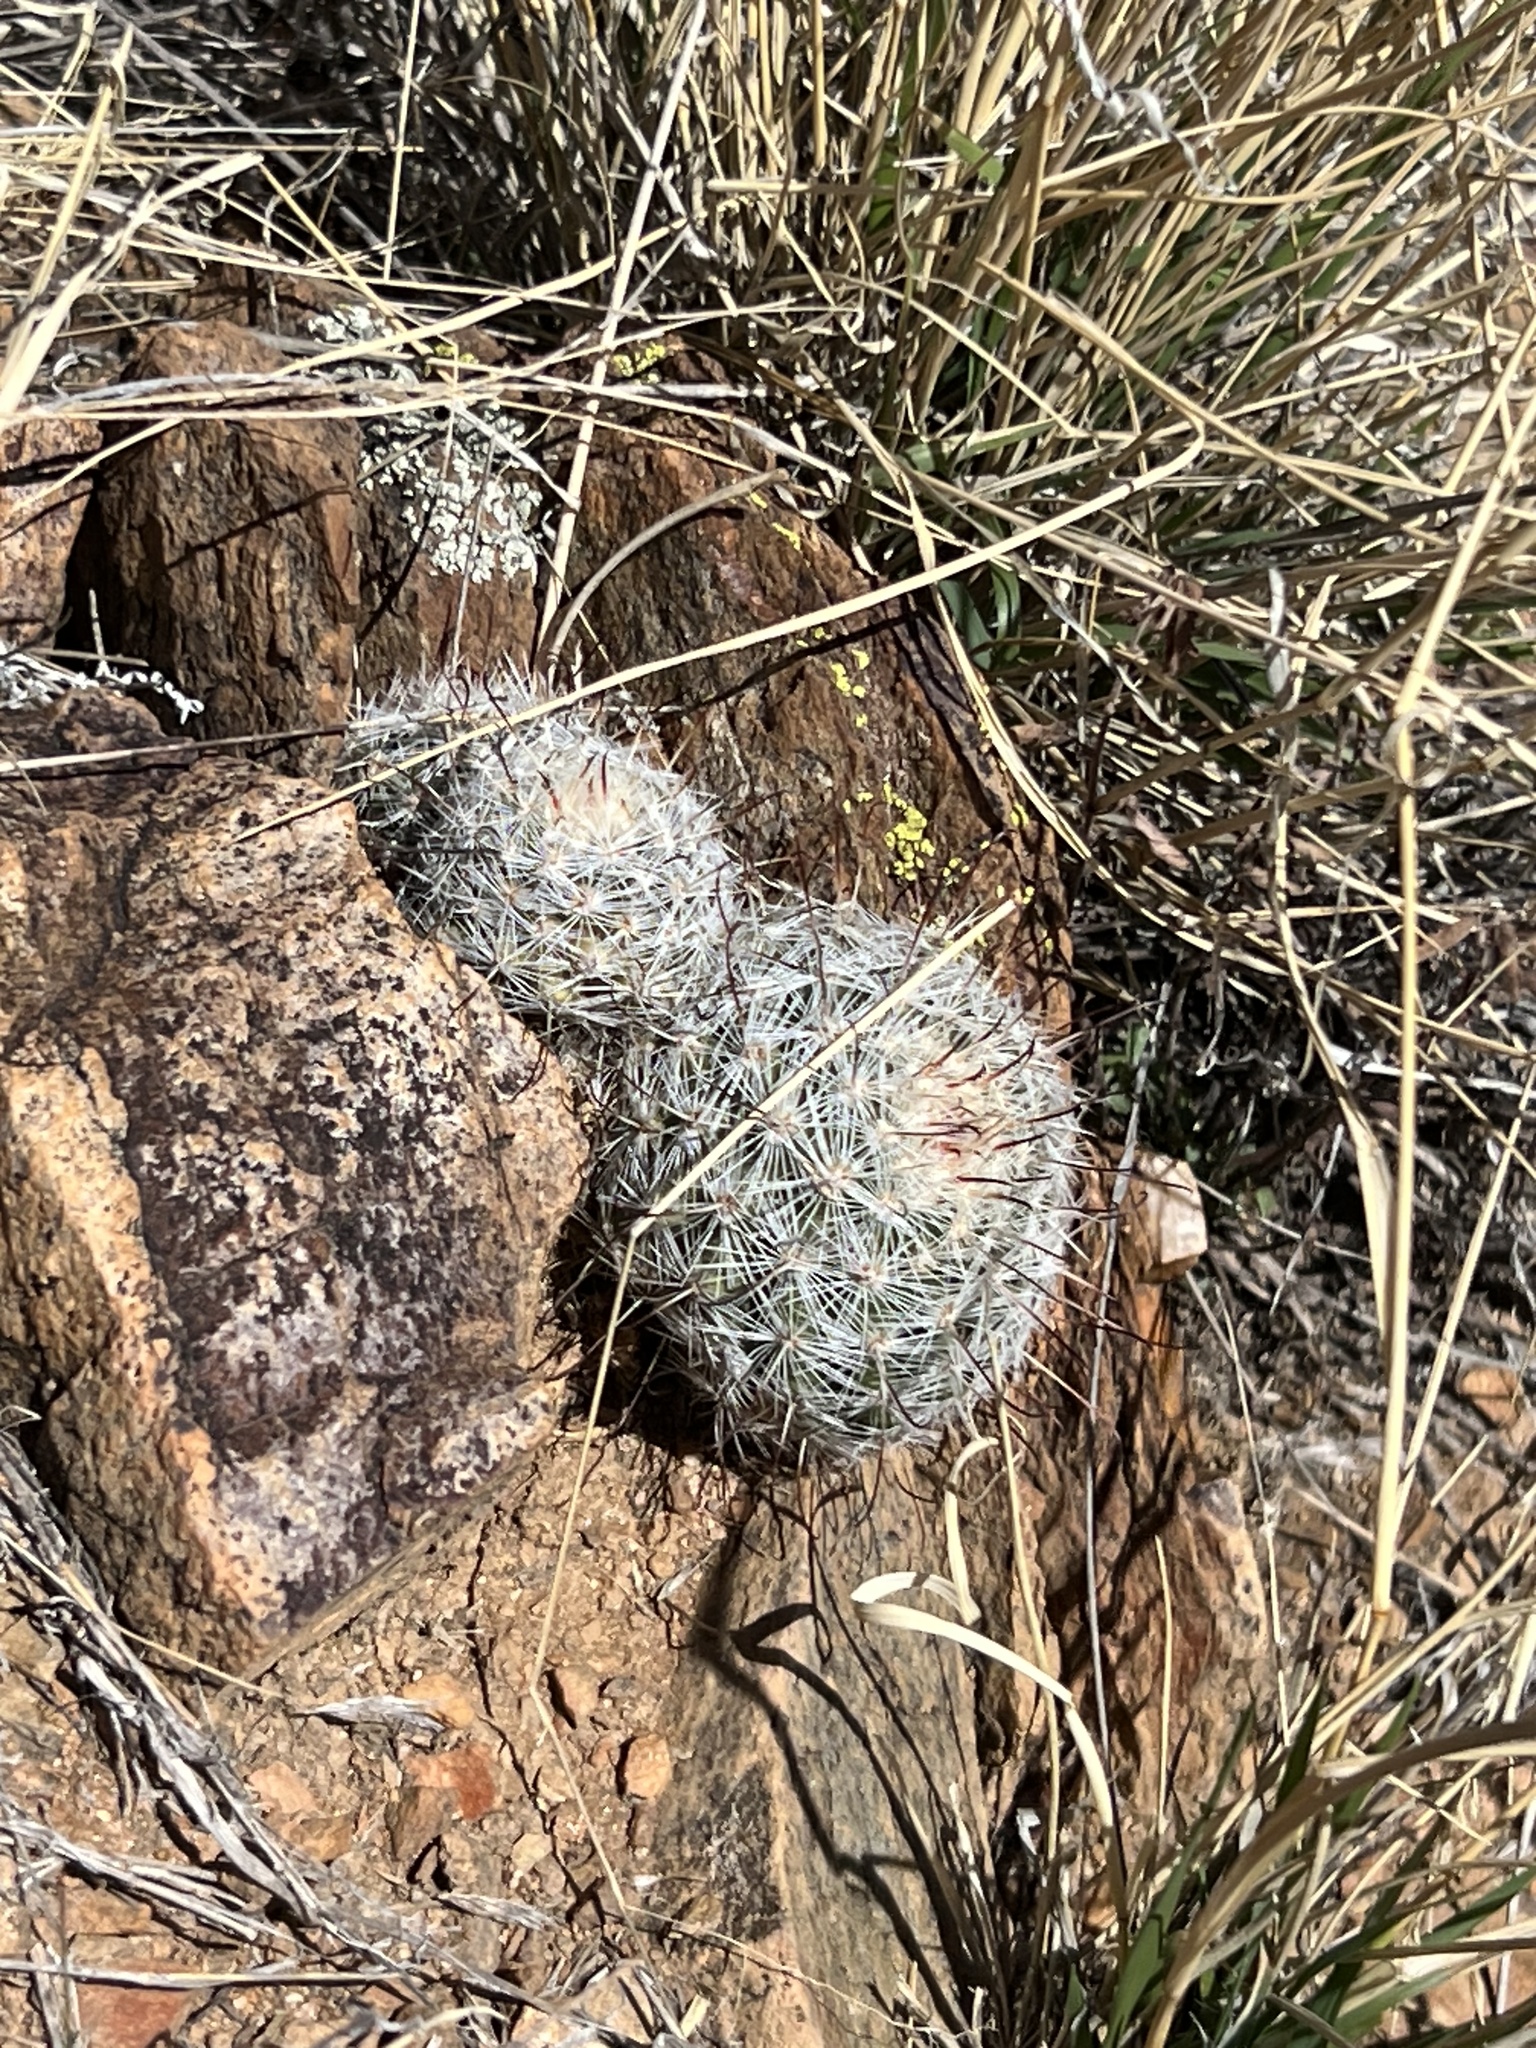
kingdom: Plantae
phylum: Tracheophyta
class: Magnoliopsida
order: Caryophyllales
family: Cactaceae
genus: Cochemiea
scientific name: Cochemiea grahamii
